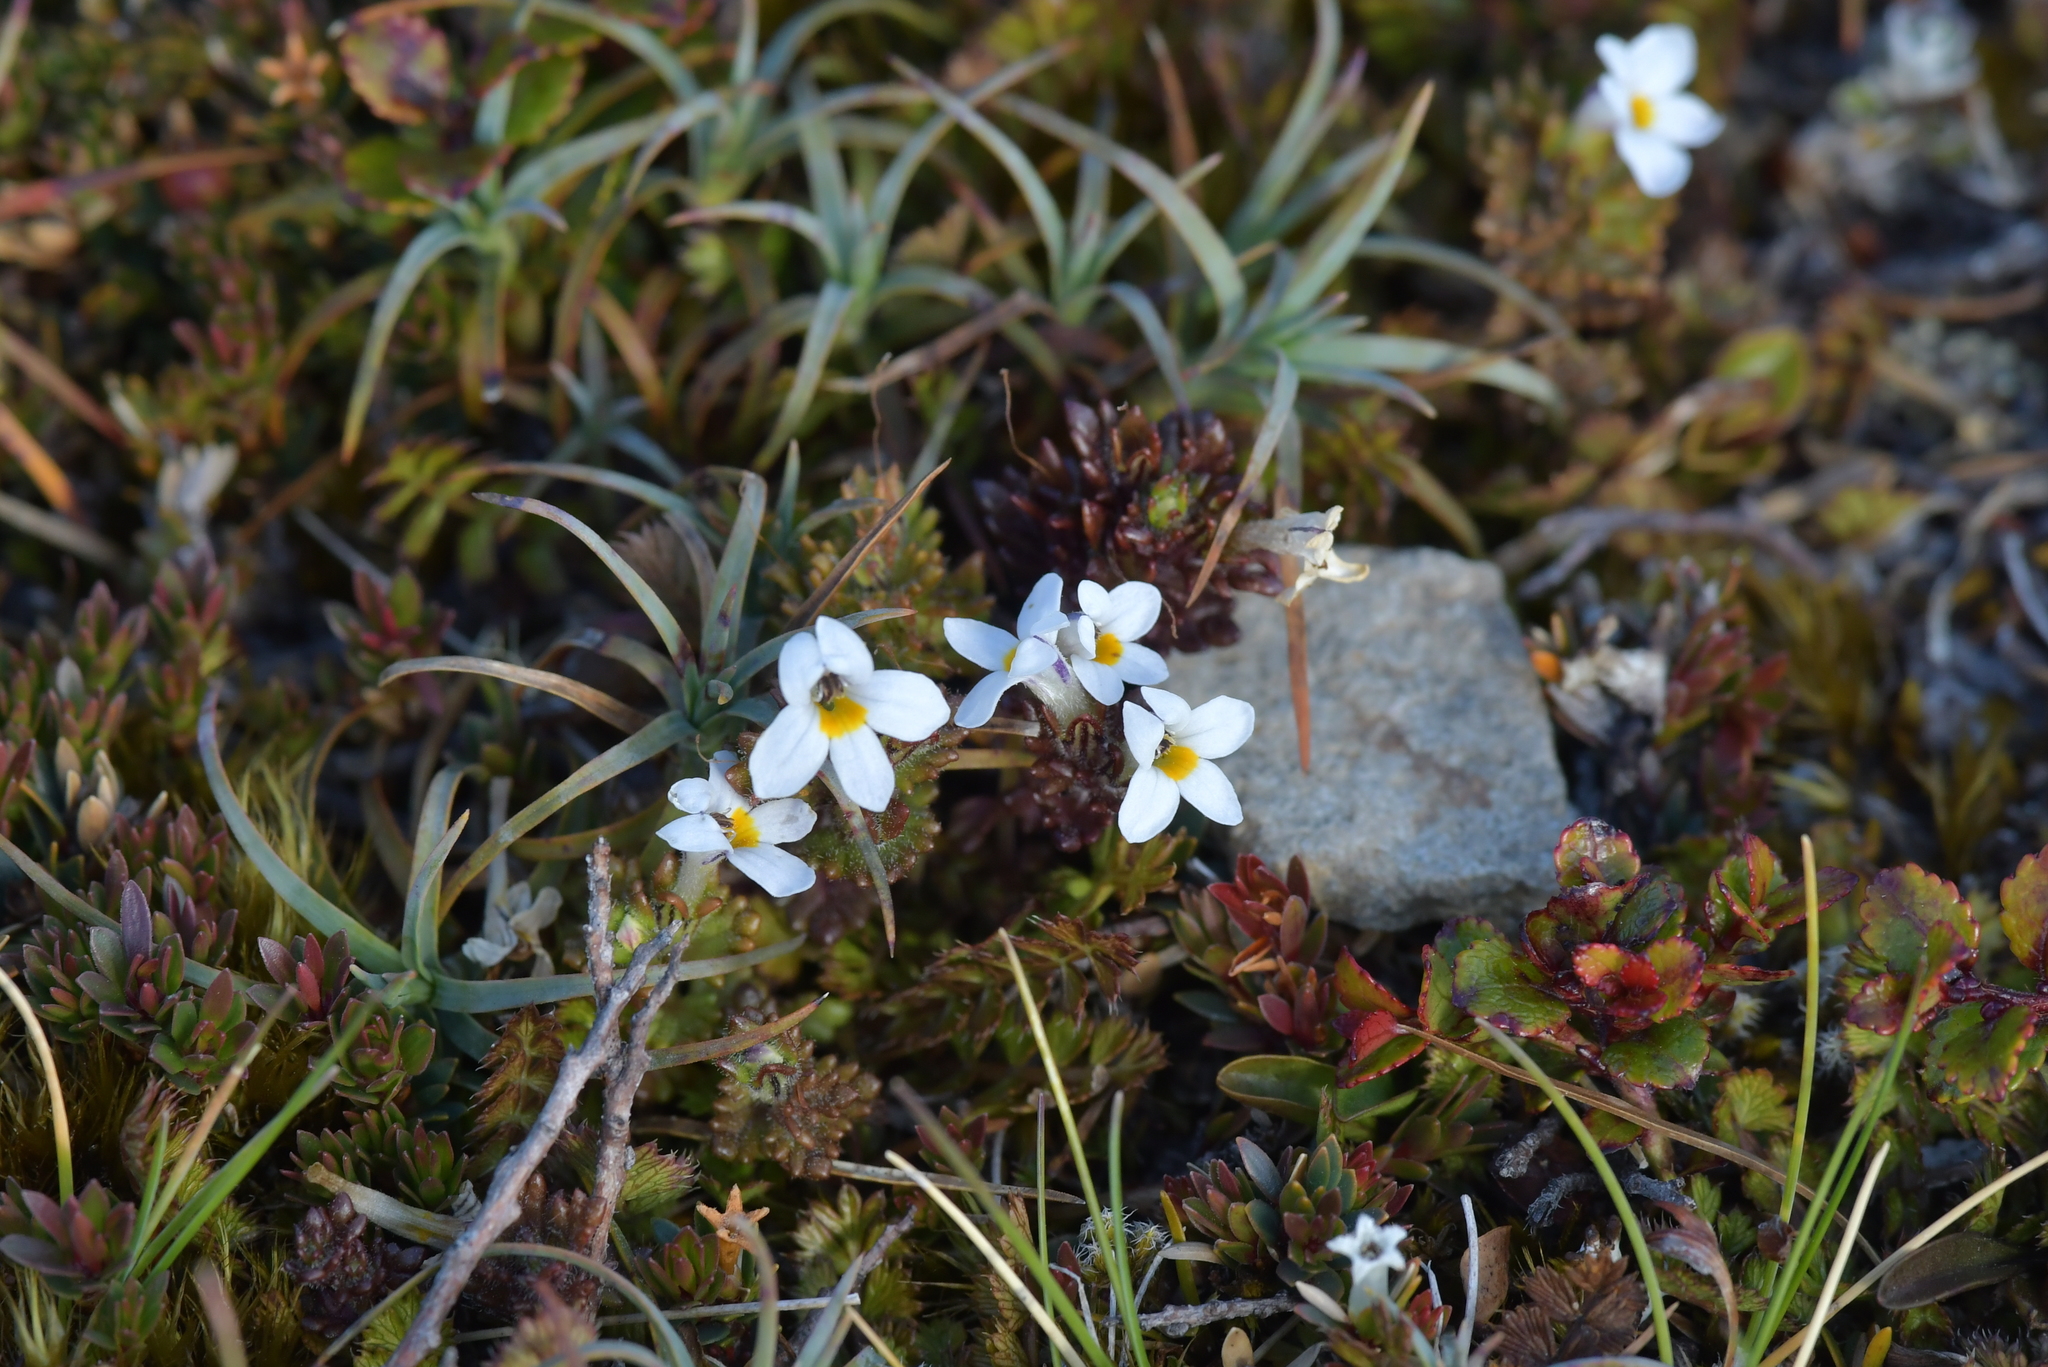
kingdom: Plantae
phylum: Tracheophyta
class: Magnoliopsida
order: Lamiales
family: Orobanchaceae
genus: Euphrasia
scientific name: Euphrasia zelandica
